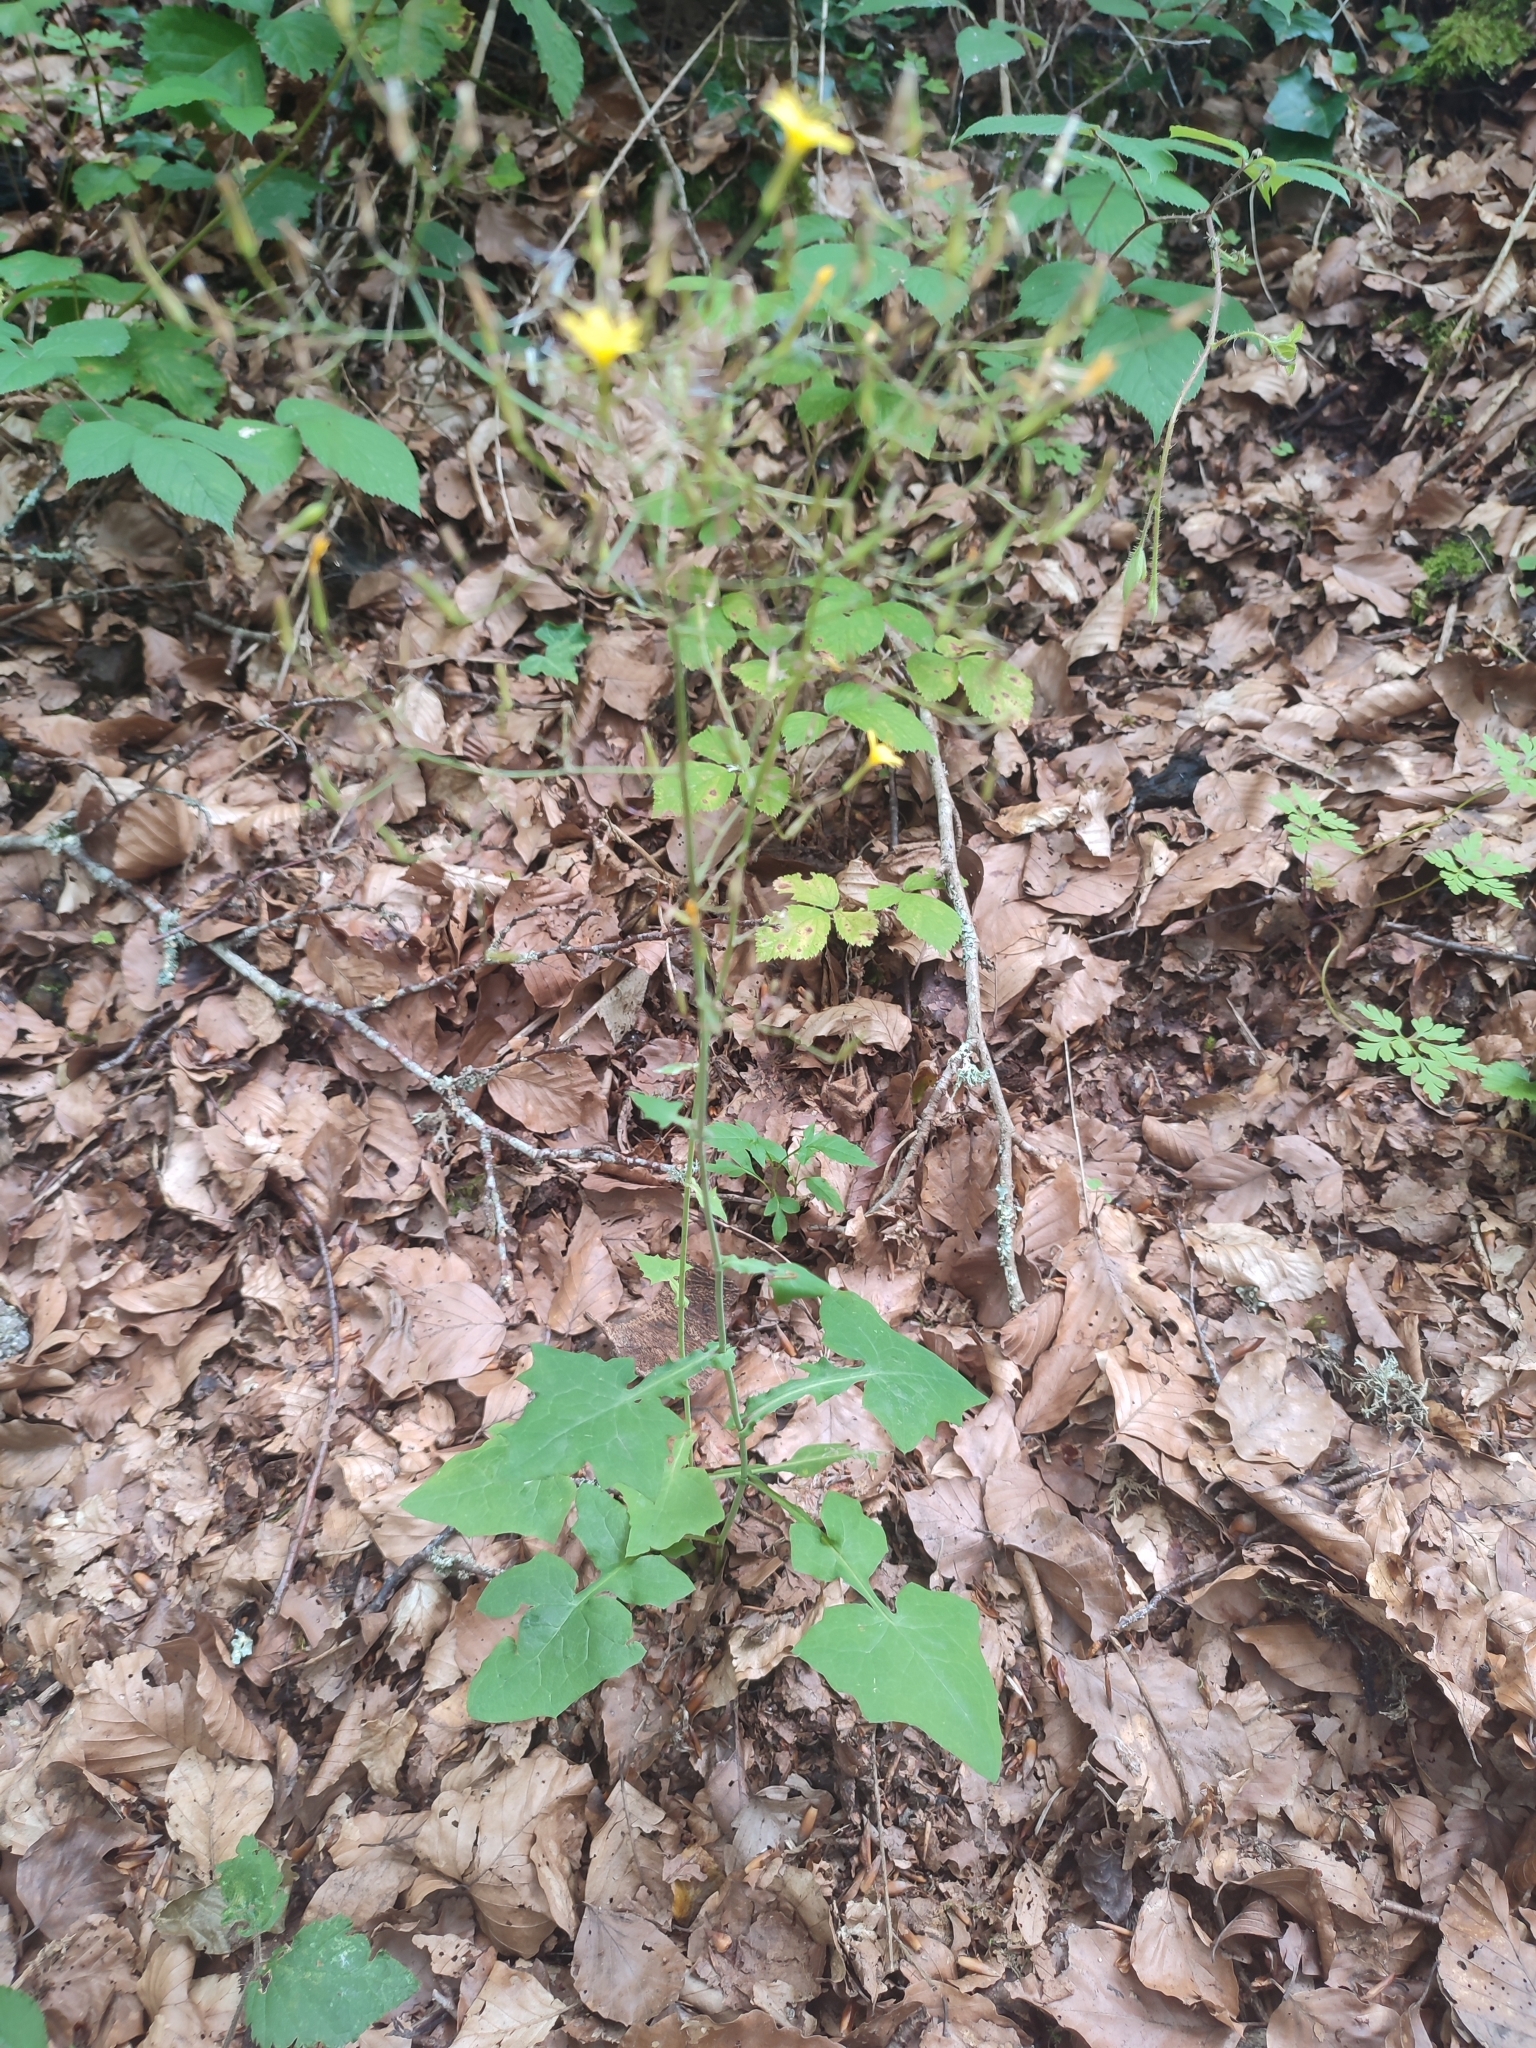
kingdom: Plantae
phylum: Tracheophyta
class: Magnoliopsida
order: Asterales
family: Asteraceae
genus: Mycelis
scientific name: Mycelis muralis
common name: Wall lettuce
